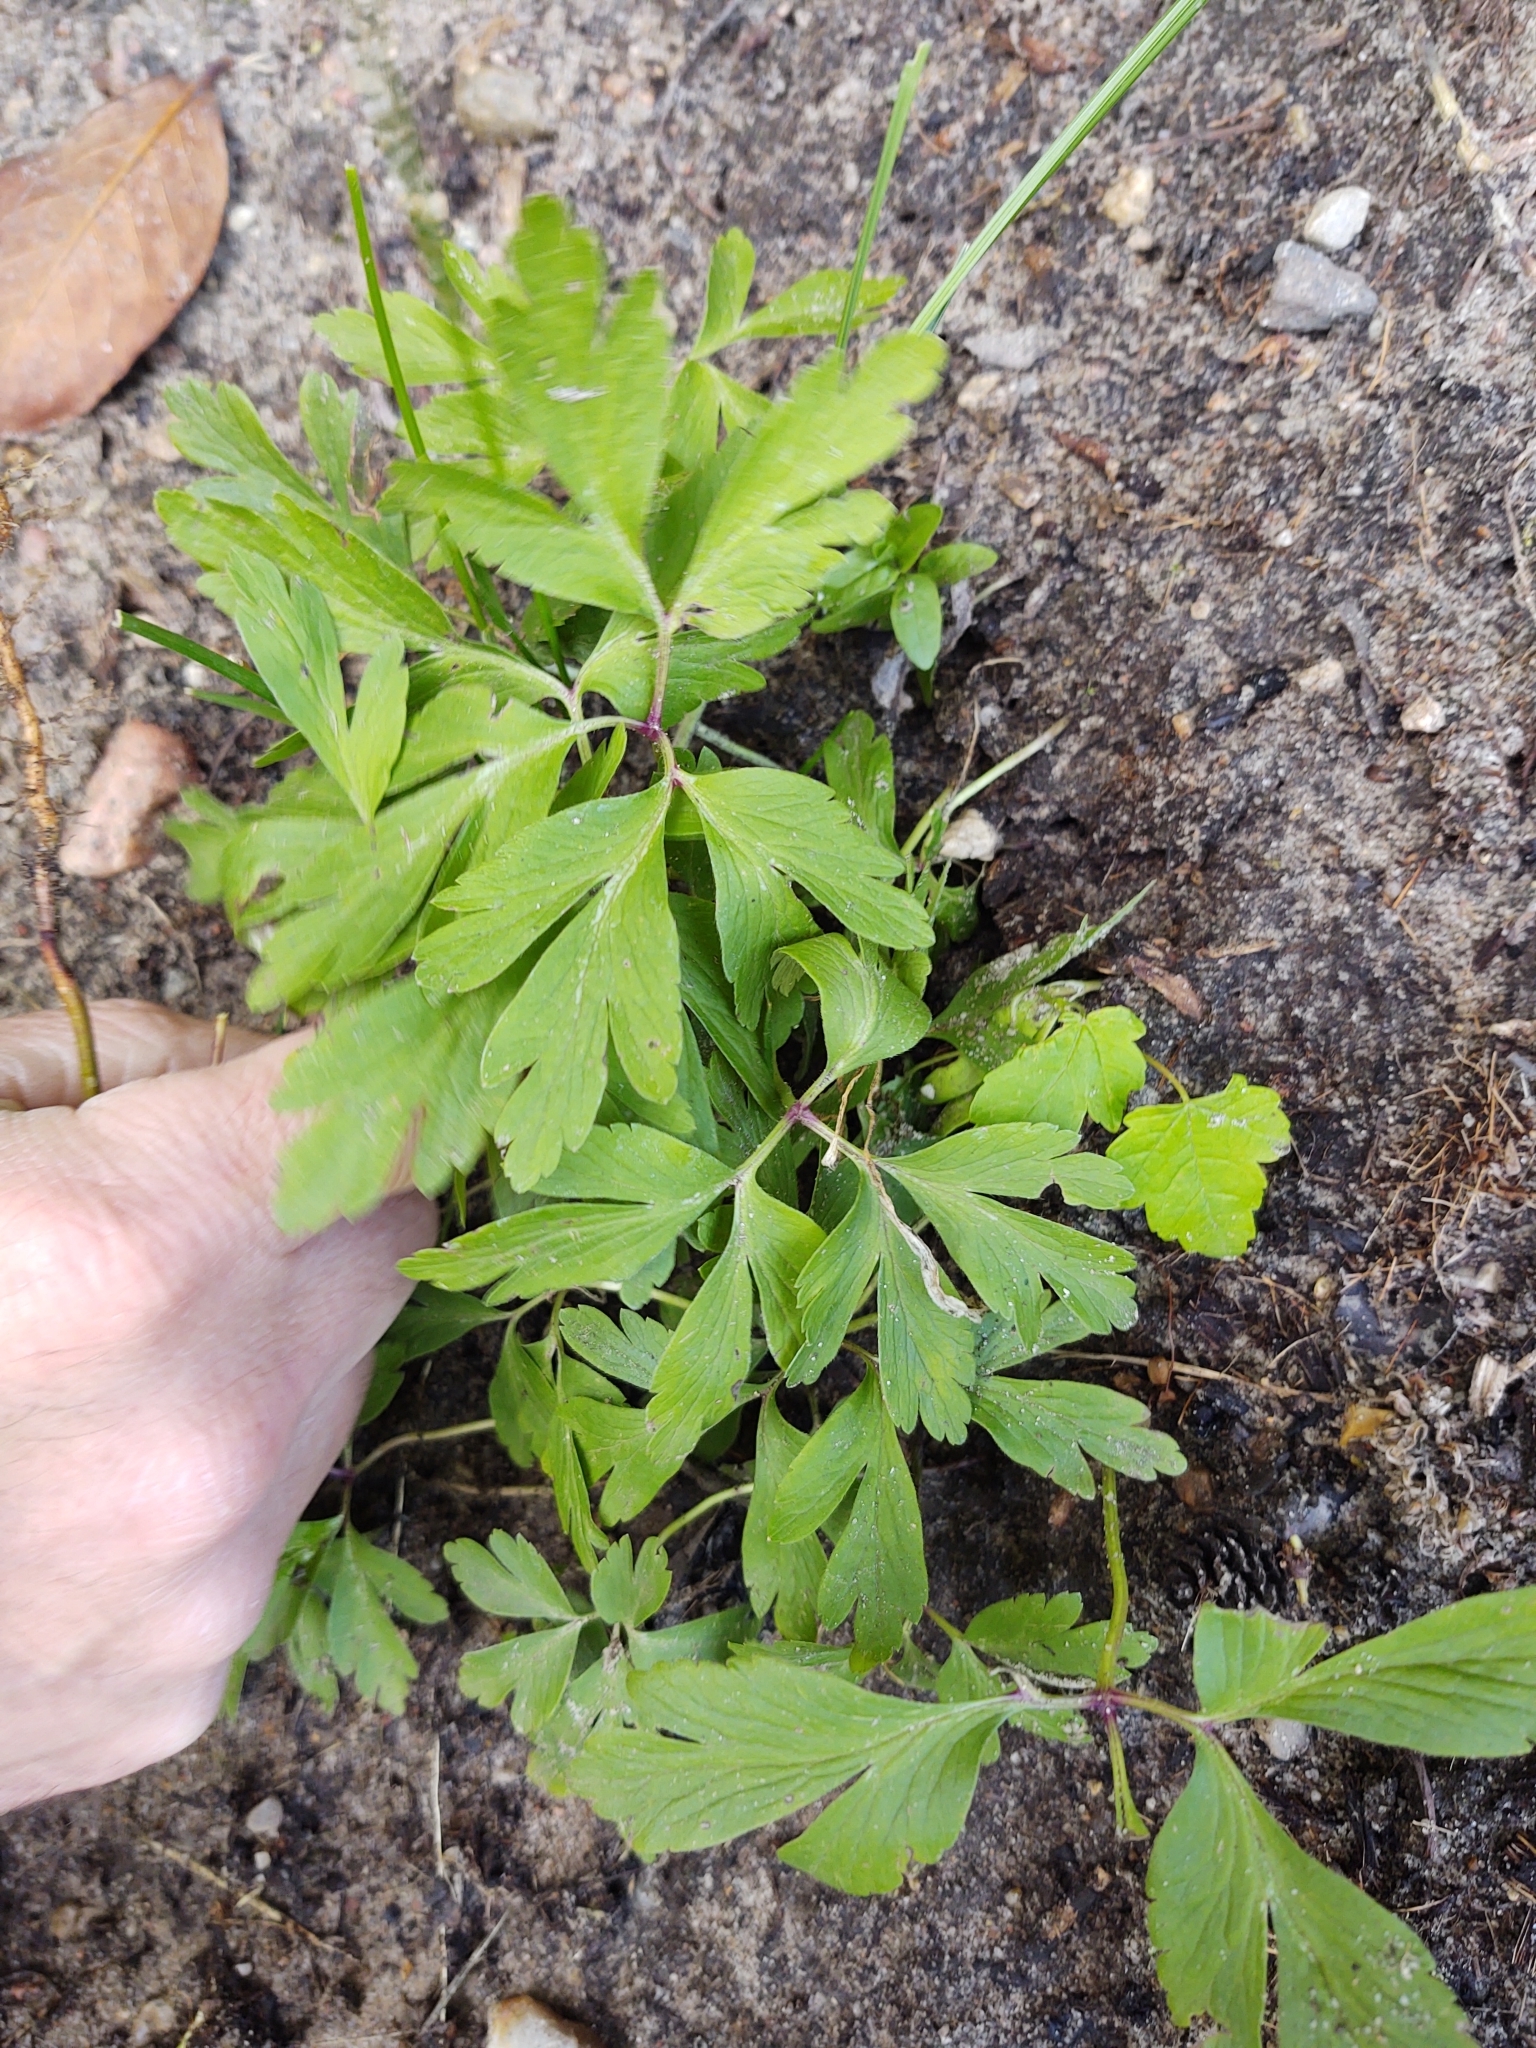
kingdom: Plantae
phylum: Tracheophyta
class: Magnoliopsida
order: Ranunculales
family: Ranunculaceae
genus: Anemone
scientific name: Anemone nemorosa
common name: Wood anemone
